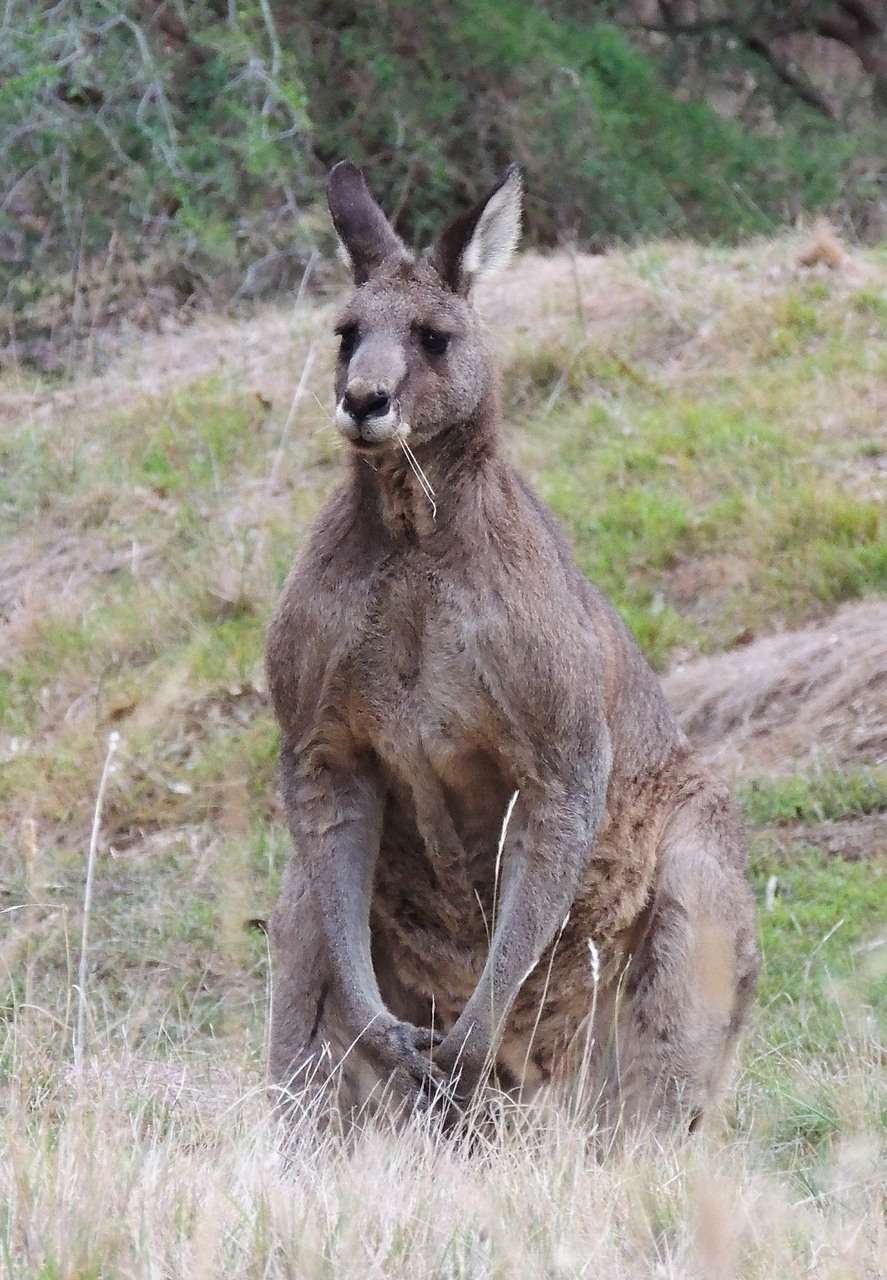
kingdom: Animalia
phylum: Chordata
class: Mammalia
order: Diprotodontia
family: Macropodidae
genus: Macropus
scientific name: Macropus giganteus
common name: Eastern grey kangaroo
